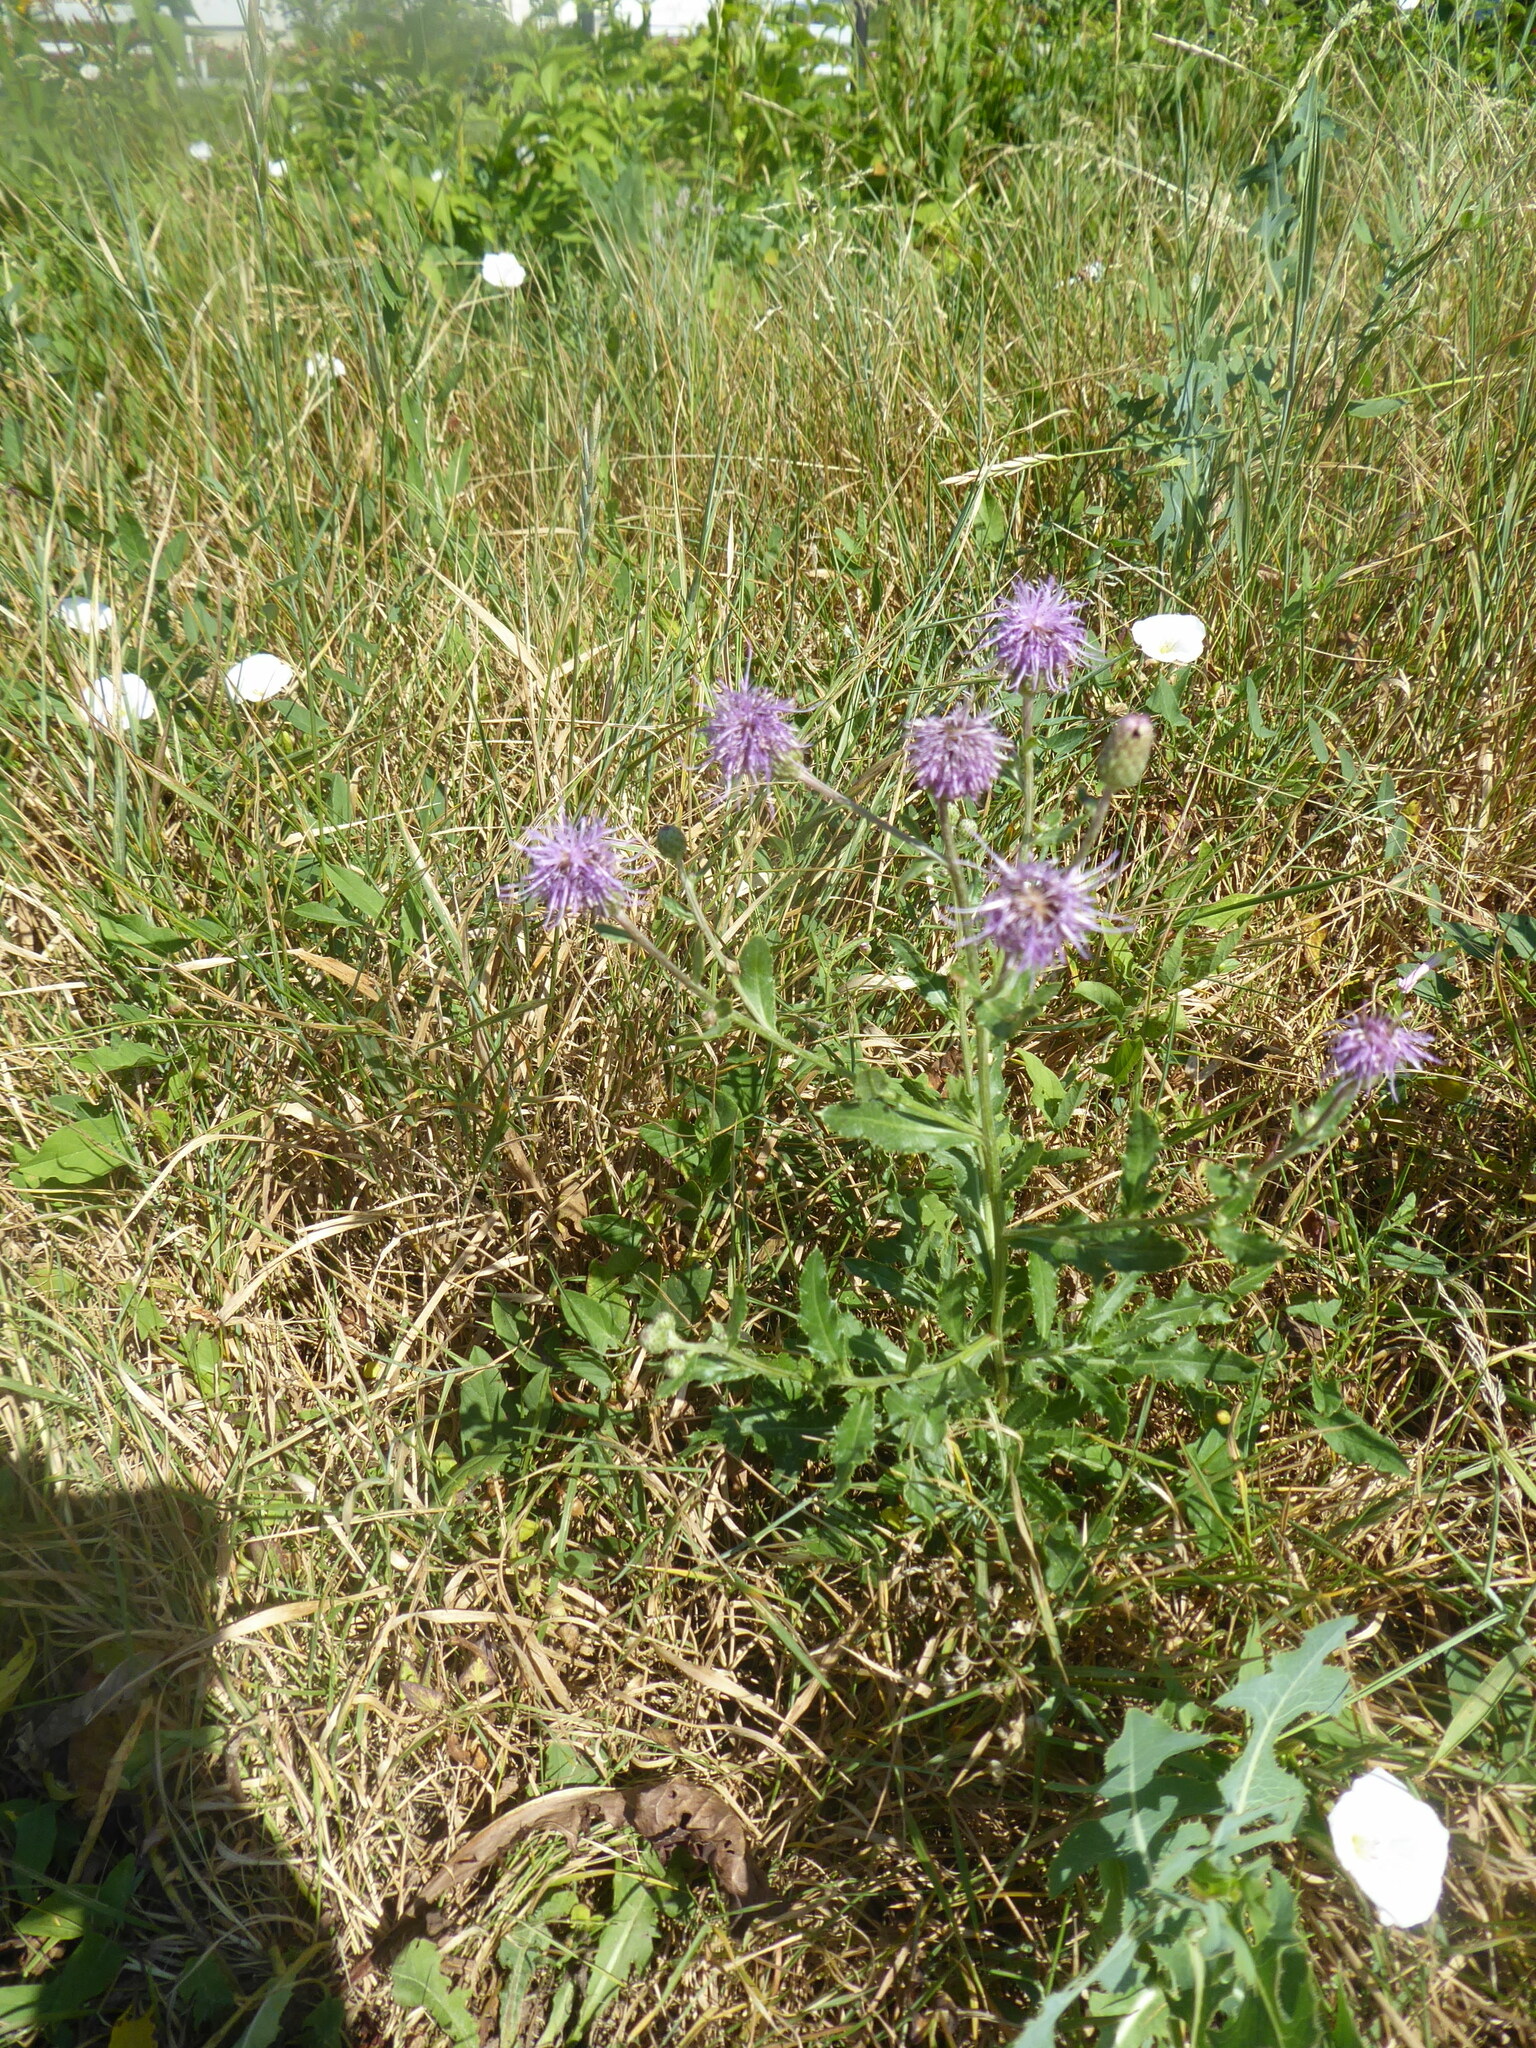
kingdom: Plantae
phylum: Tracheophyta
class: Magnoliopsida
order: Asterales
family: Asteraceae
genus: Cirsium
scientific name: Cirsium arvense
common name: Creeping thistle
